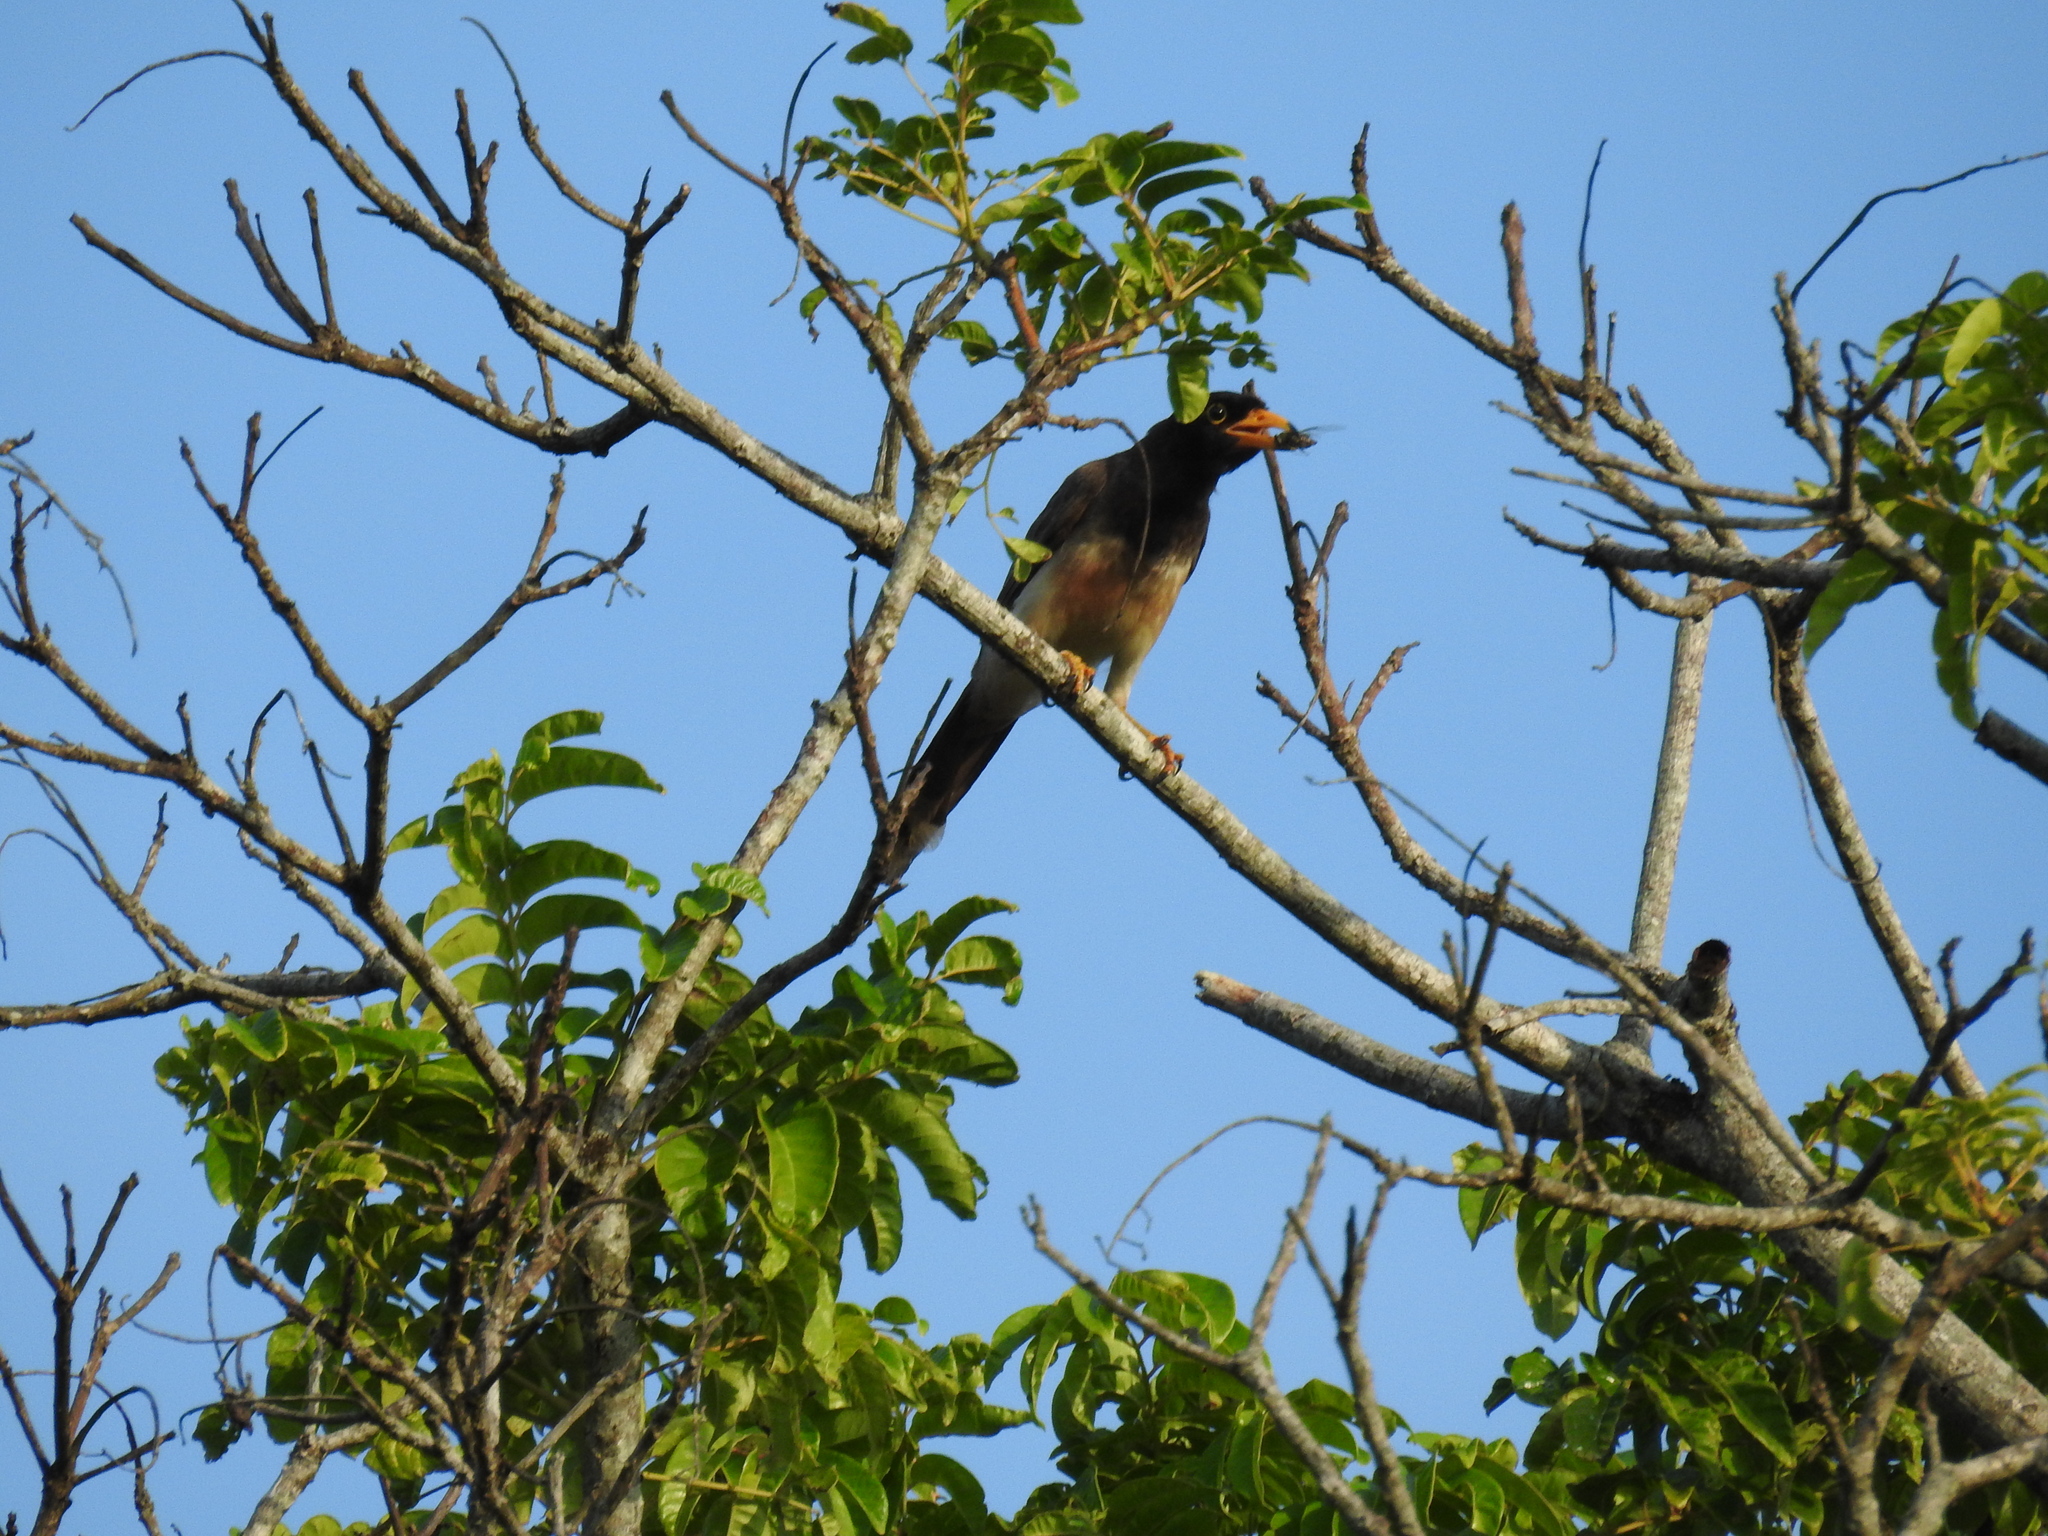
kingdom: Animalia
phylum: Chordata
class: Aves
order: Passeriformes
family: Corvidae
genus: Psilorhinus
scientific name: Psilorhinus morio
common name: Brown jay
